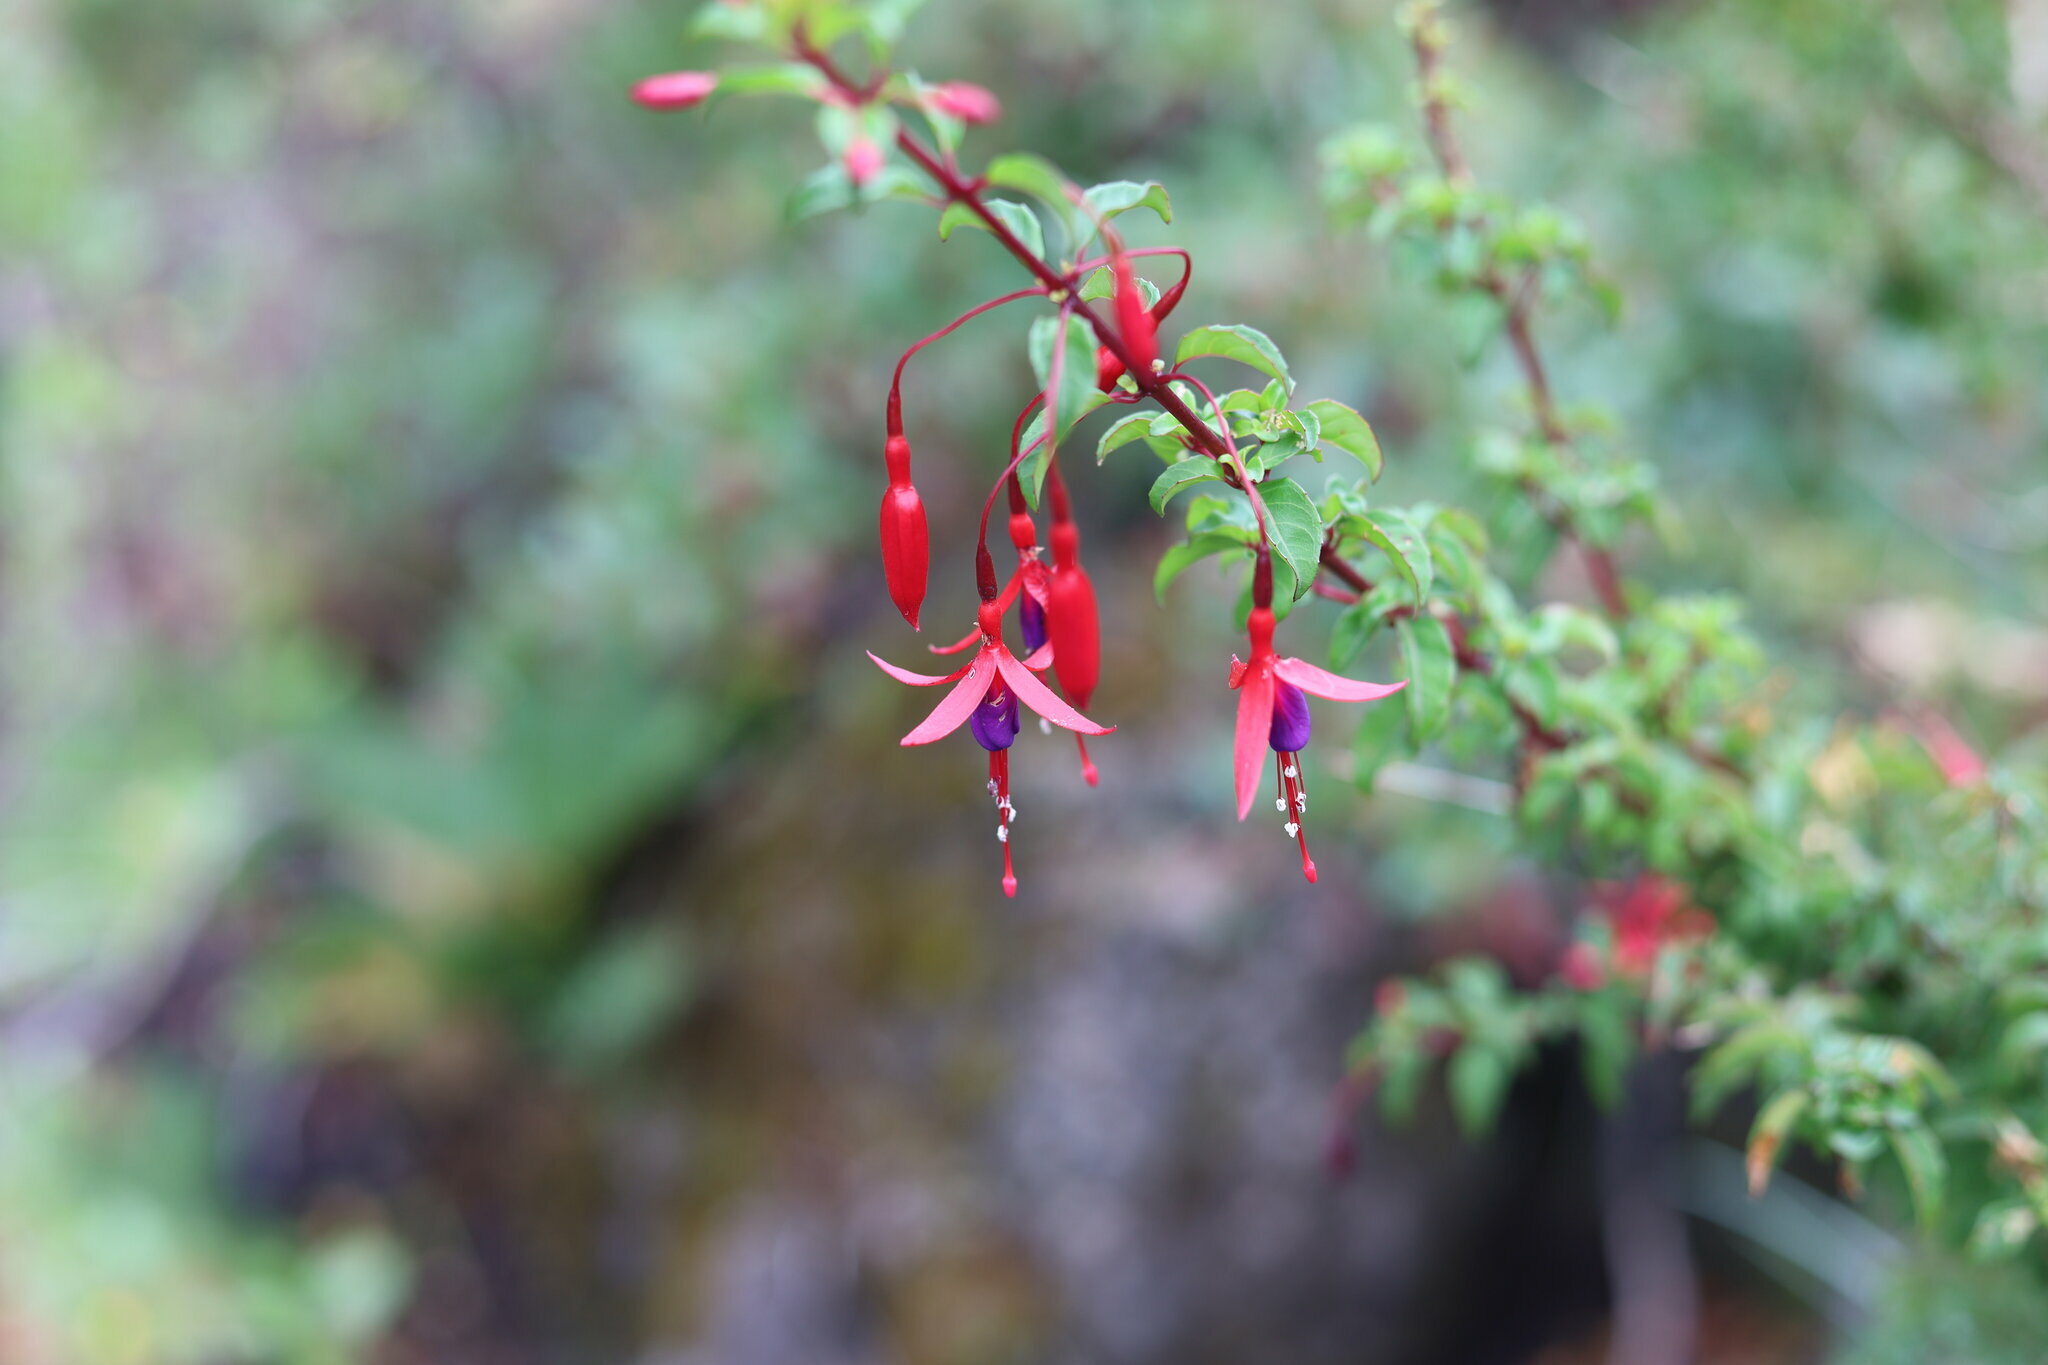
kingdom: Plantae
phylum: Tracheophyta
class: Magnoliopsida
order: Myrtales
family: Onagraceae
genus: Fuchsia
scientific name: Fuchsia magellanica
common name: Hardy fuchsia
